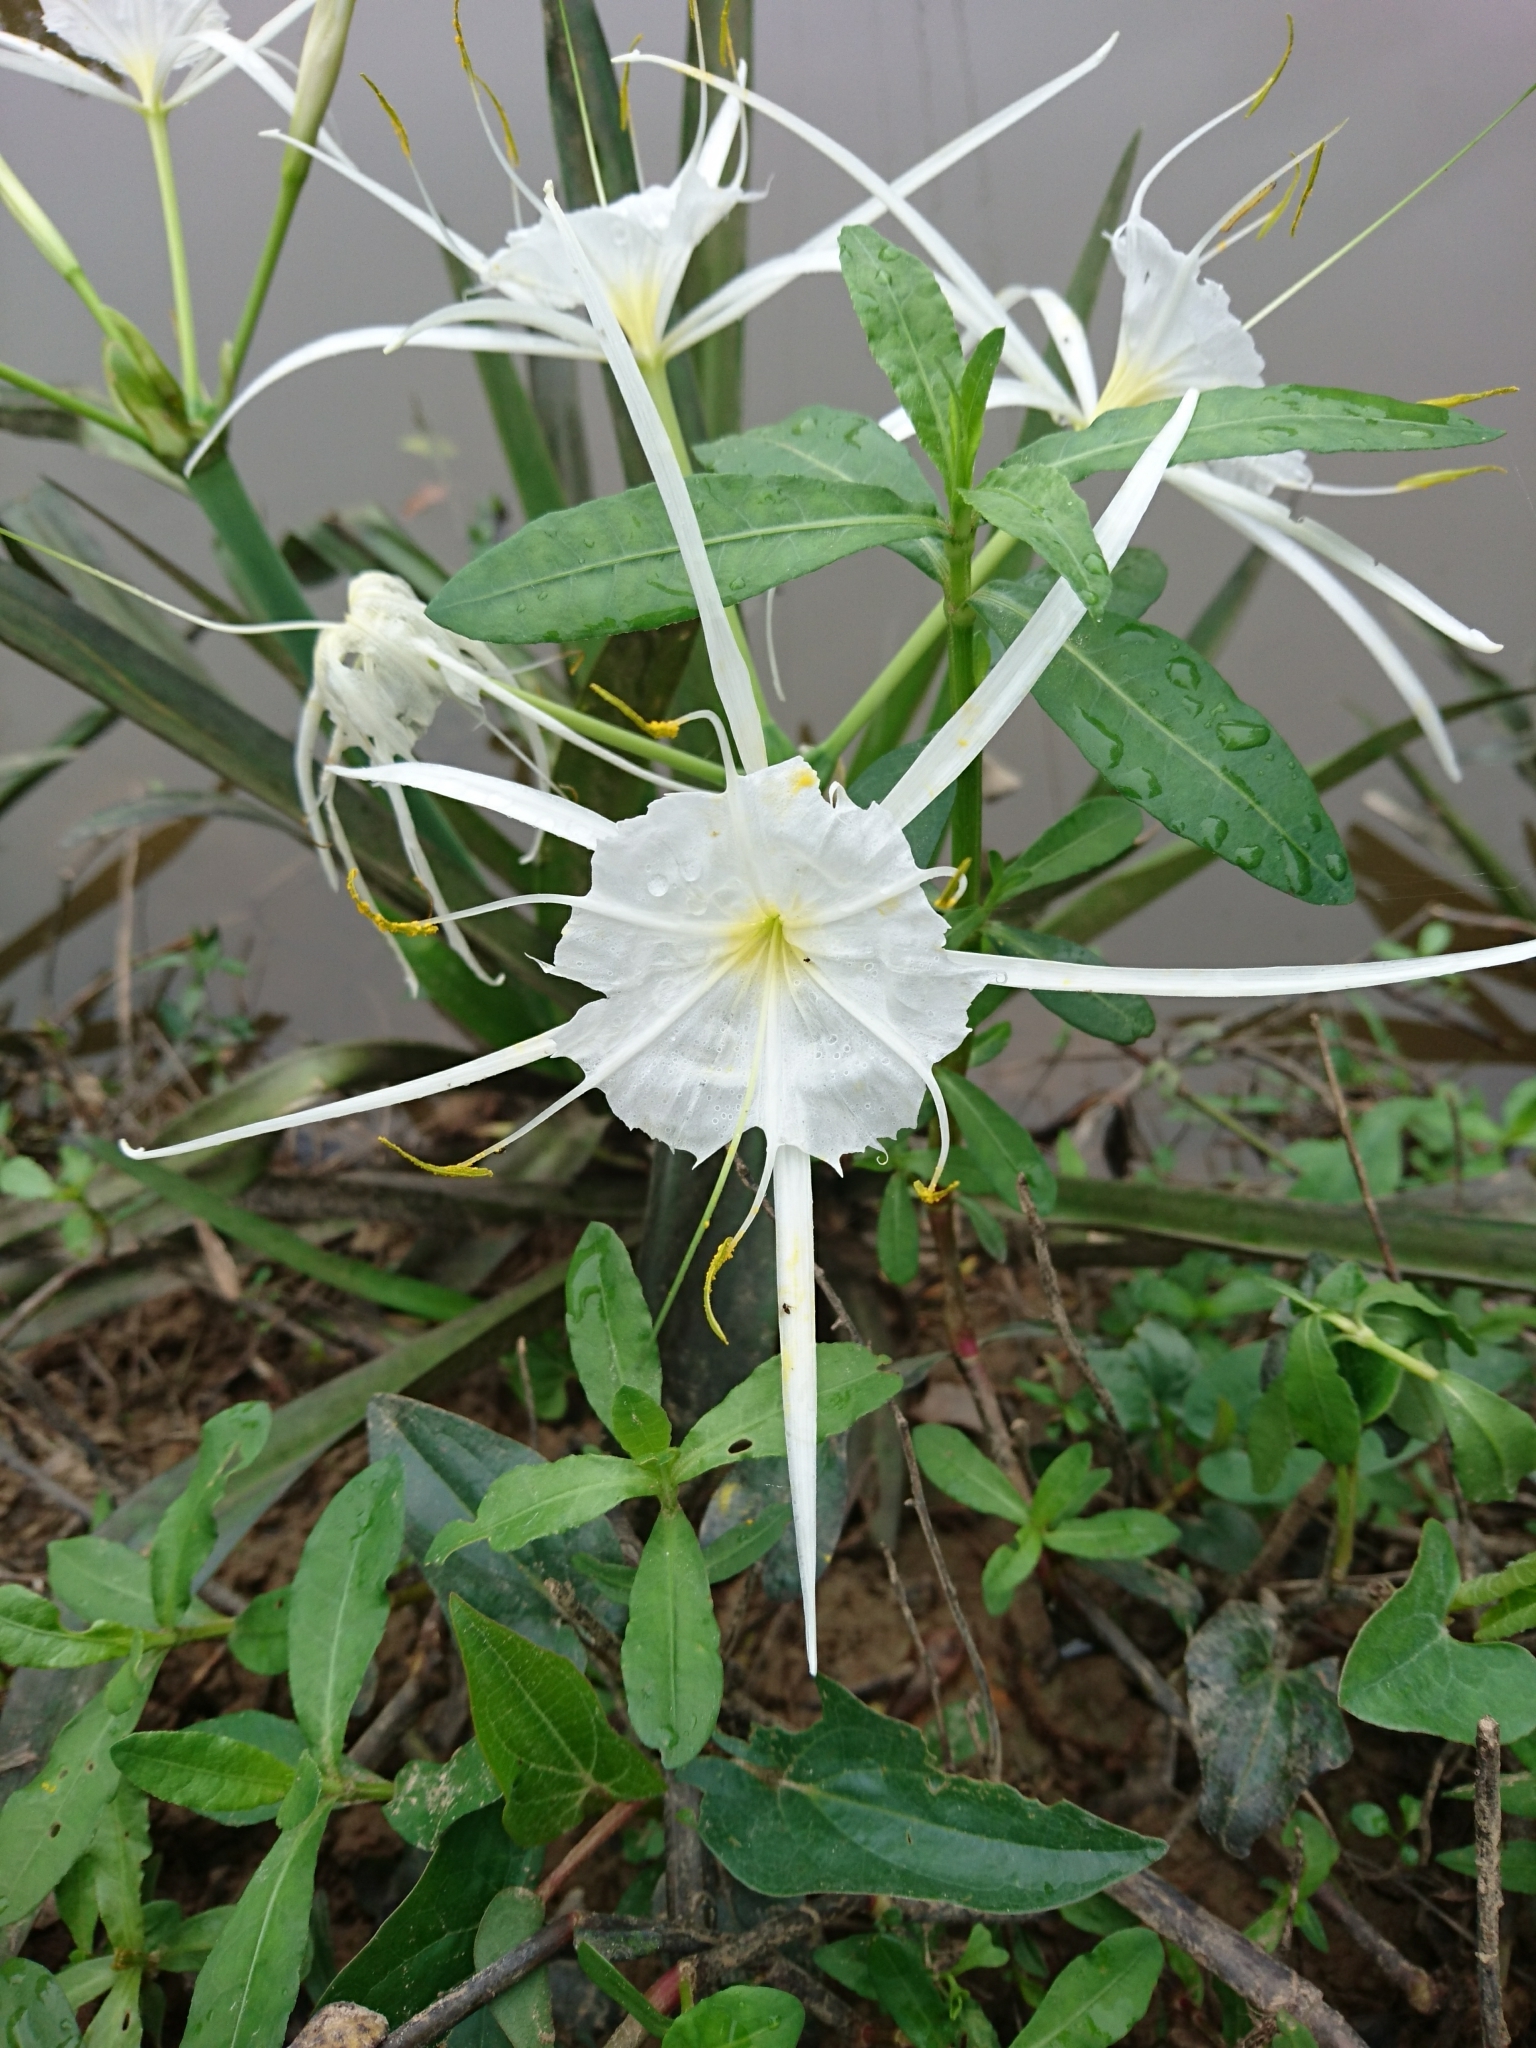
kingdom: Plantae
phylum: Tracheophyta
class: Liliopsida
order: Asparagales
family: Amaryllidaceae
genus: Hymenocallis
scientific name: Hymenocallis liriosme
